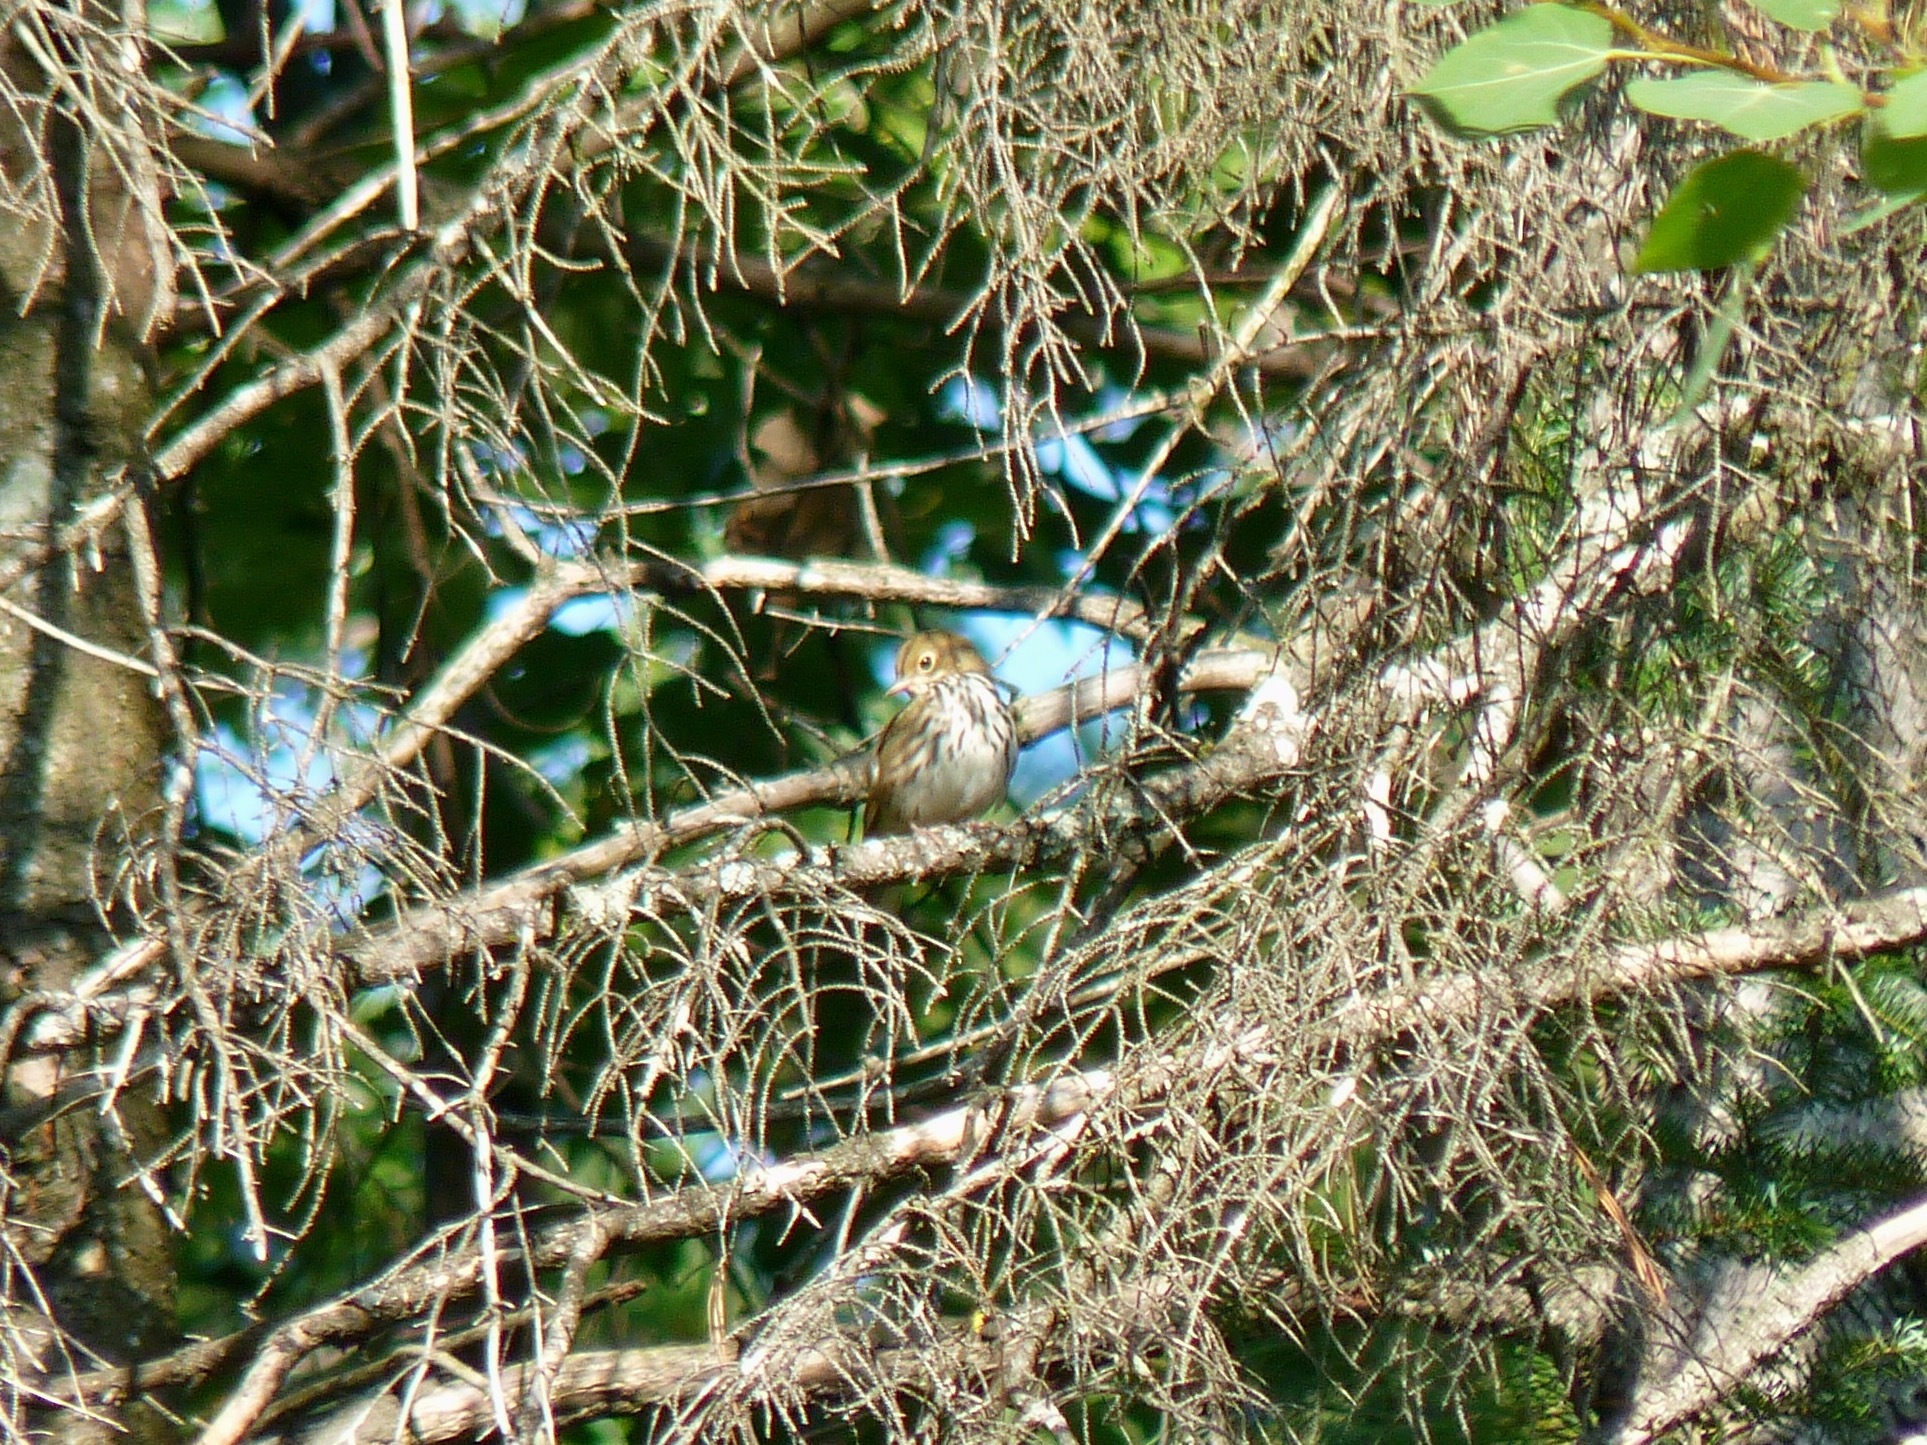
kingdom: Animalia
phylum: Chordata
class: Aves
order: Passeriformes
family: Parulidae
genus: Seiurus
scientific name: Seiurus aurocapilla
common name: Ovenbird
